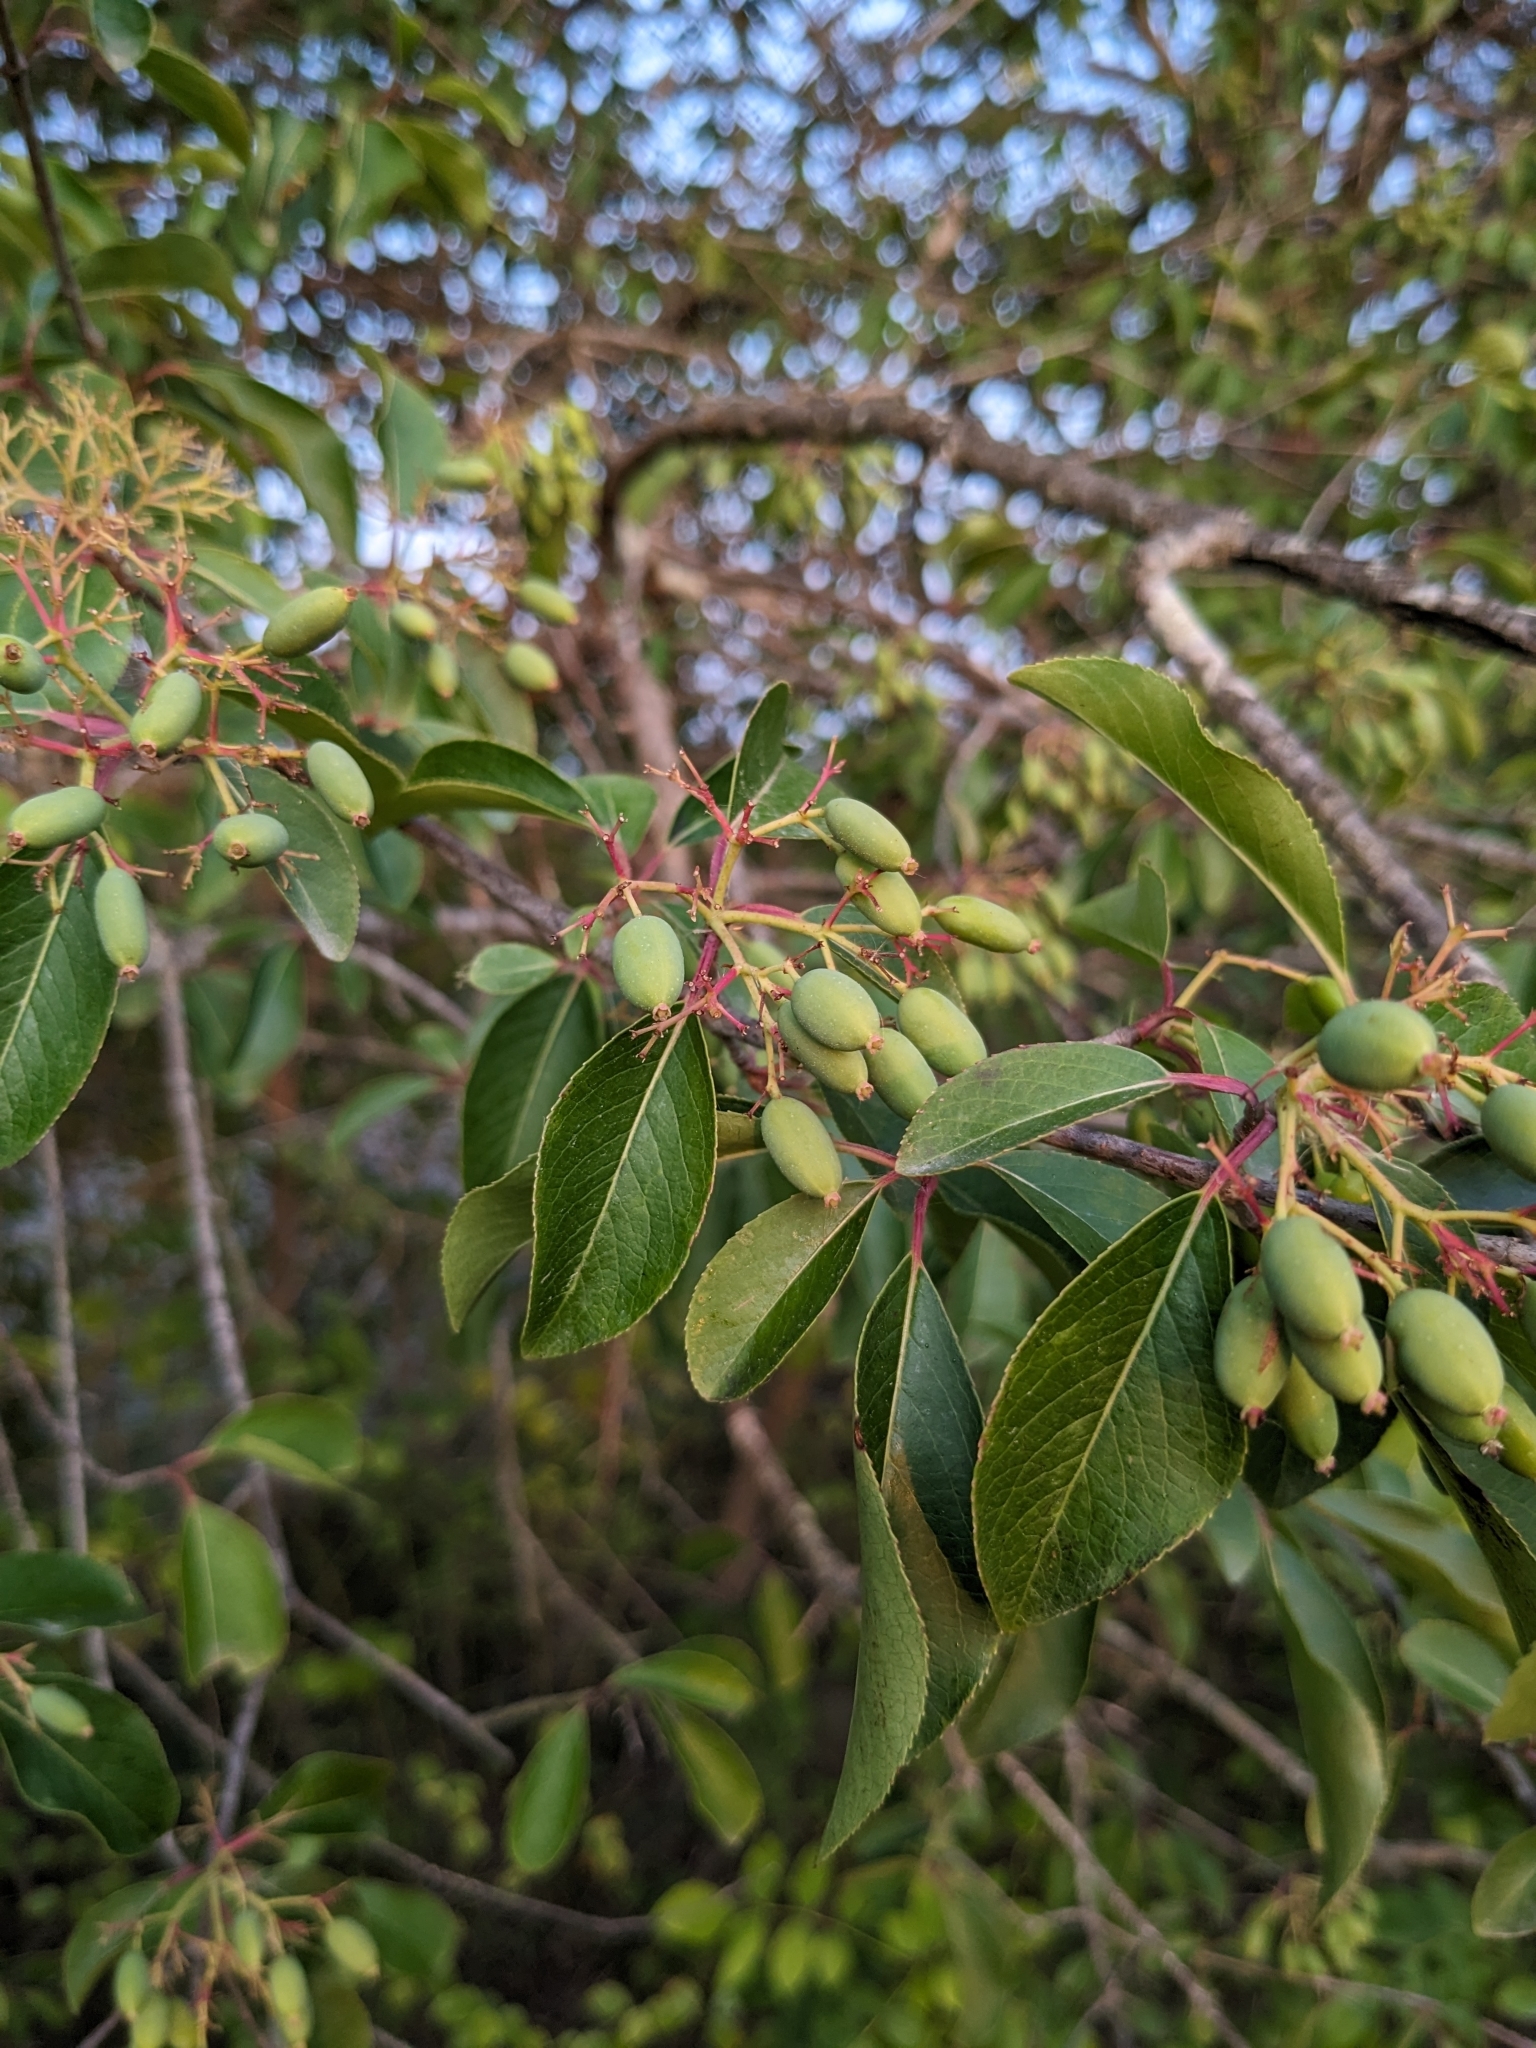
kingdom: Plantae
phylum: Tracheophyta
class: Magnoliopsida
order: Dipsacales
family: Viburnaceae
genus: Viburnum
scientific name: Viburnum prunifolium
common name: Black haw
